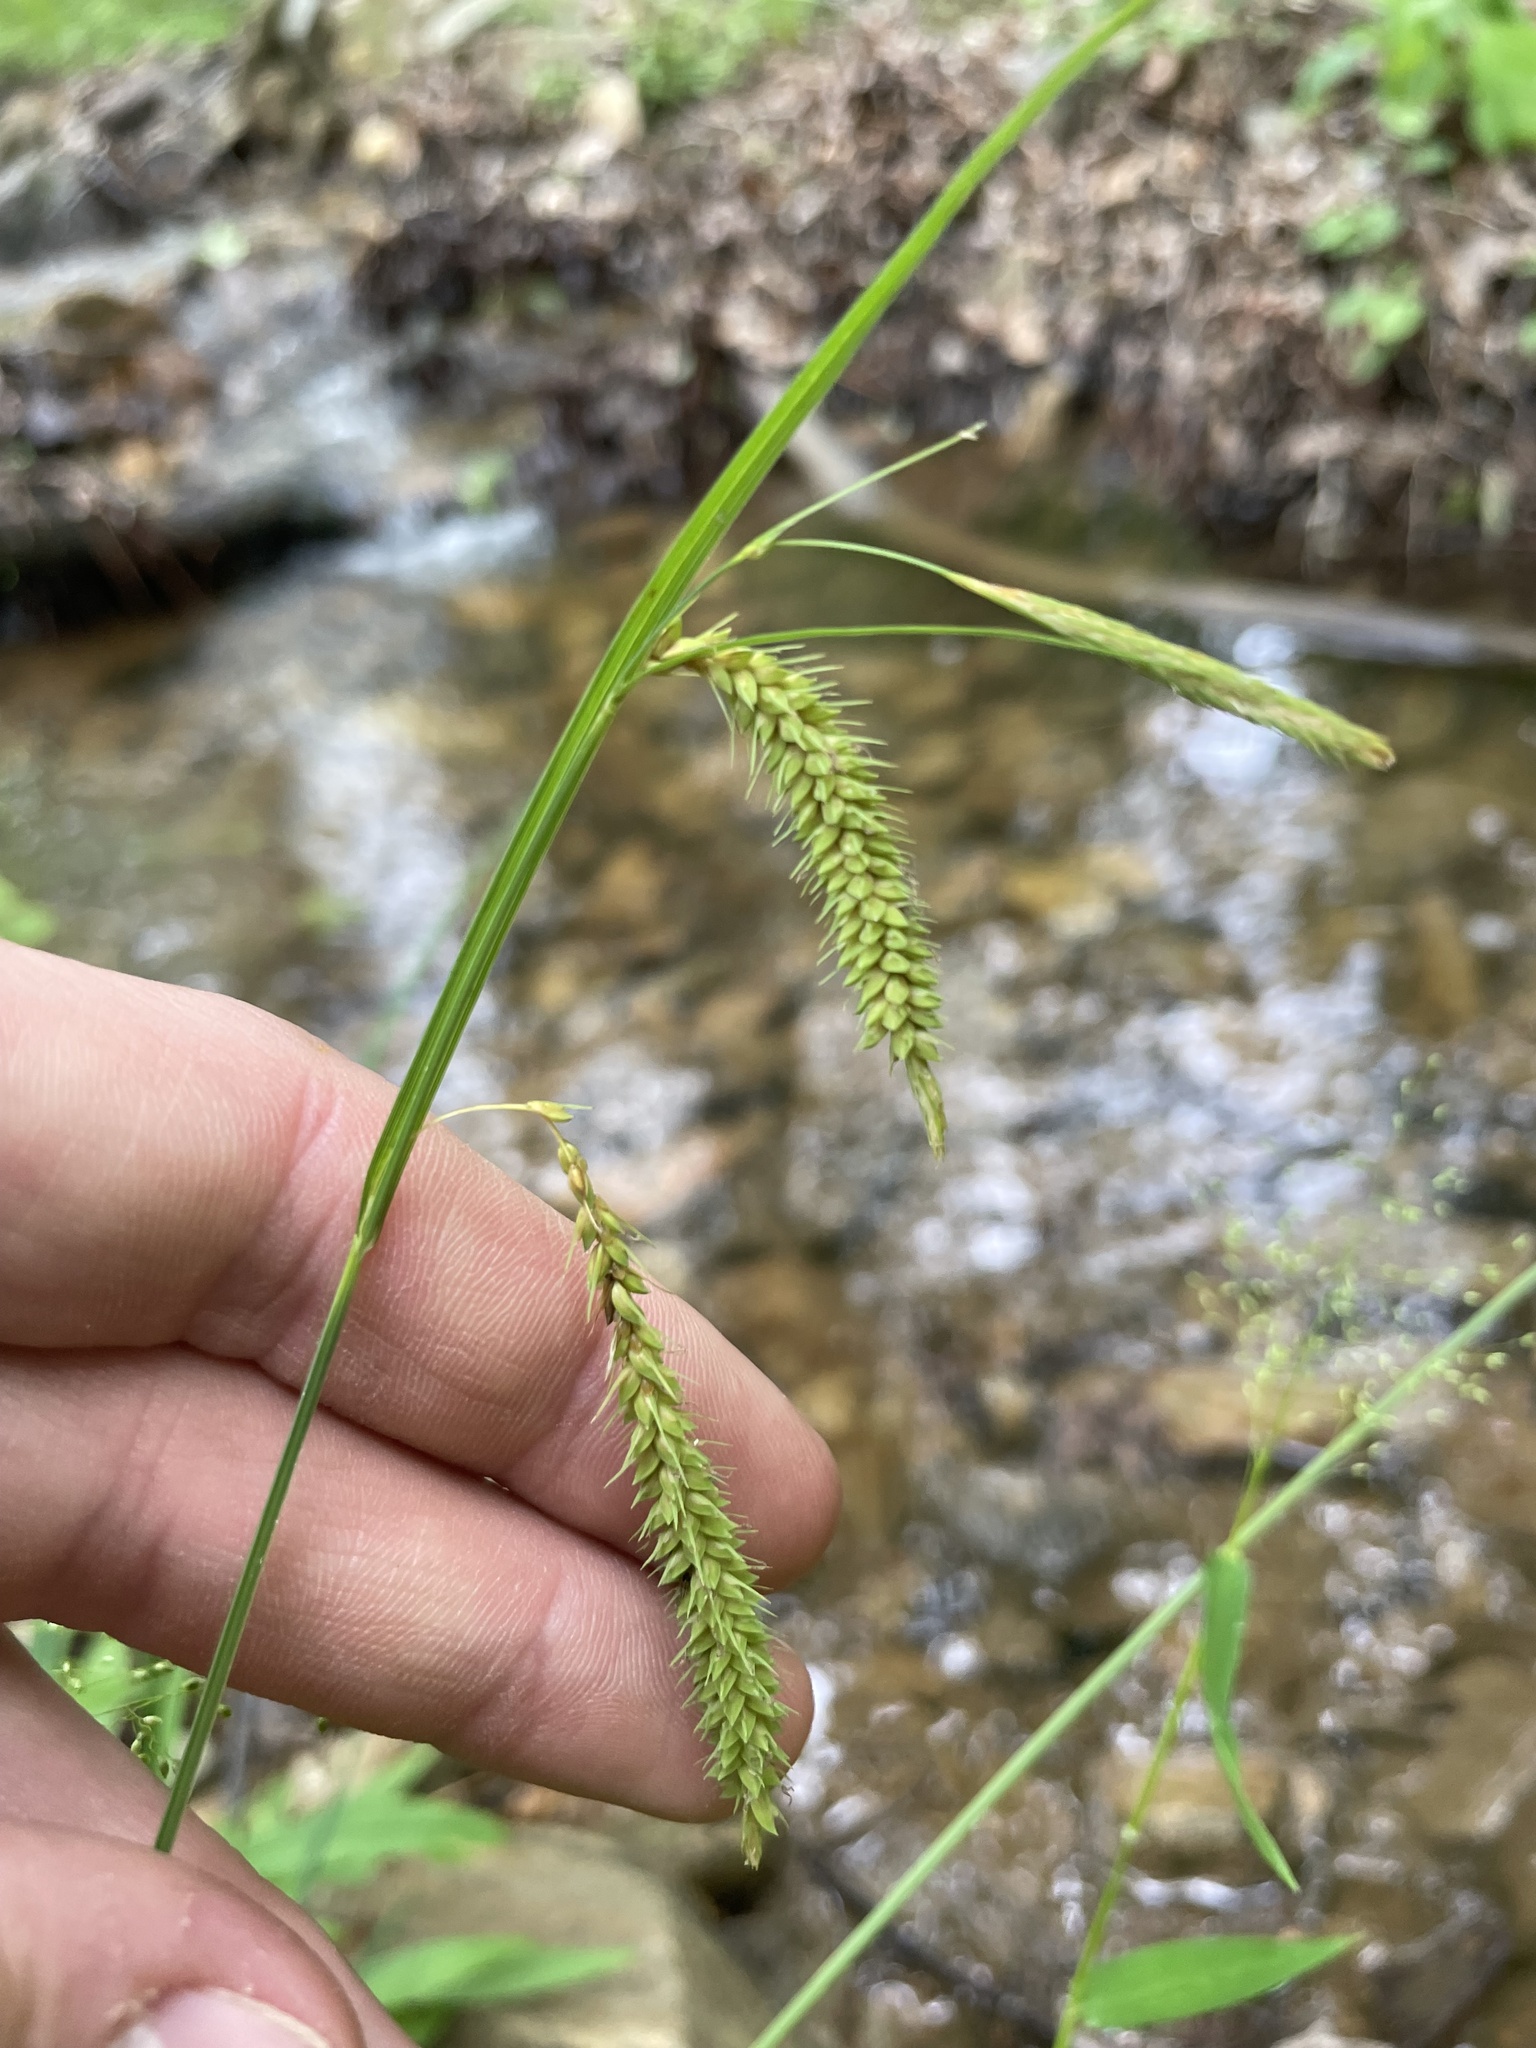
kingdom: Plantae
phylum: Tracheophyta
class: Liliopsida
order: Poales
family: Cyperaceae
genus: Carex
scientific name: Carex mitchelliana
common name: Mitchell's sedge
